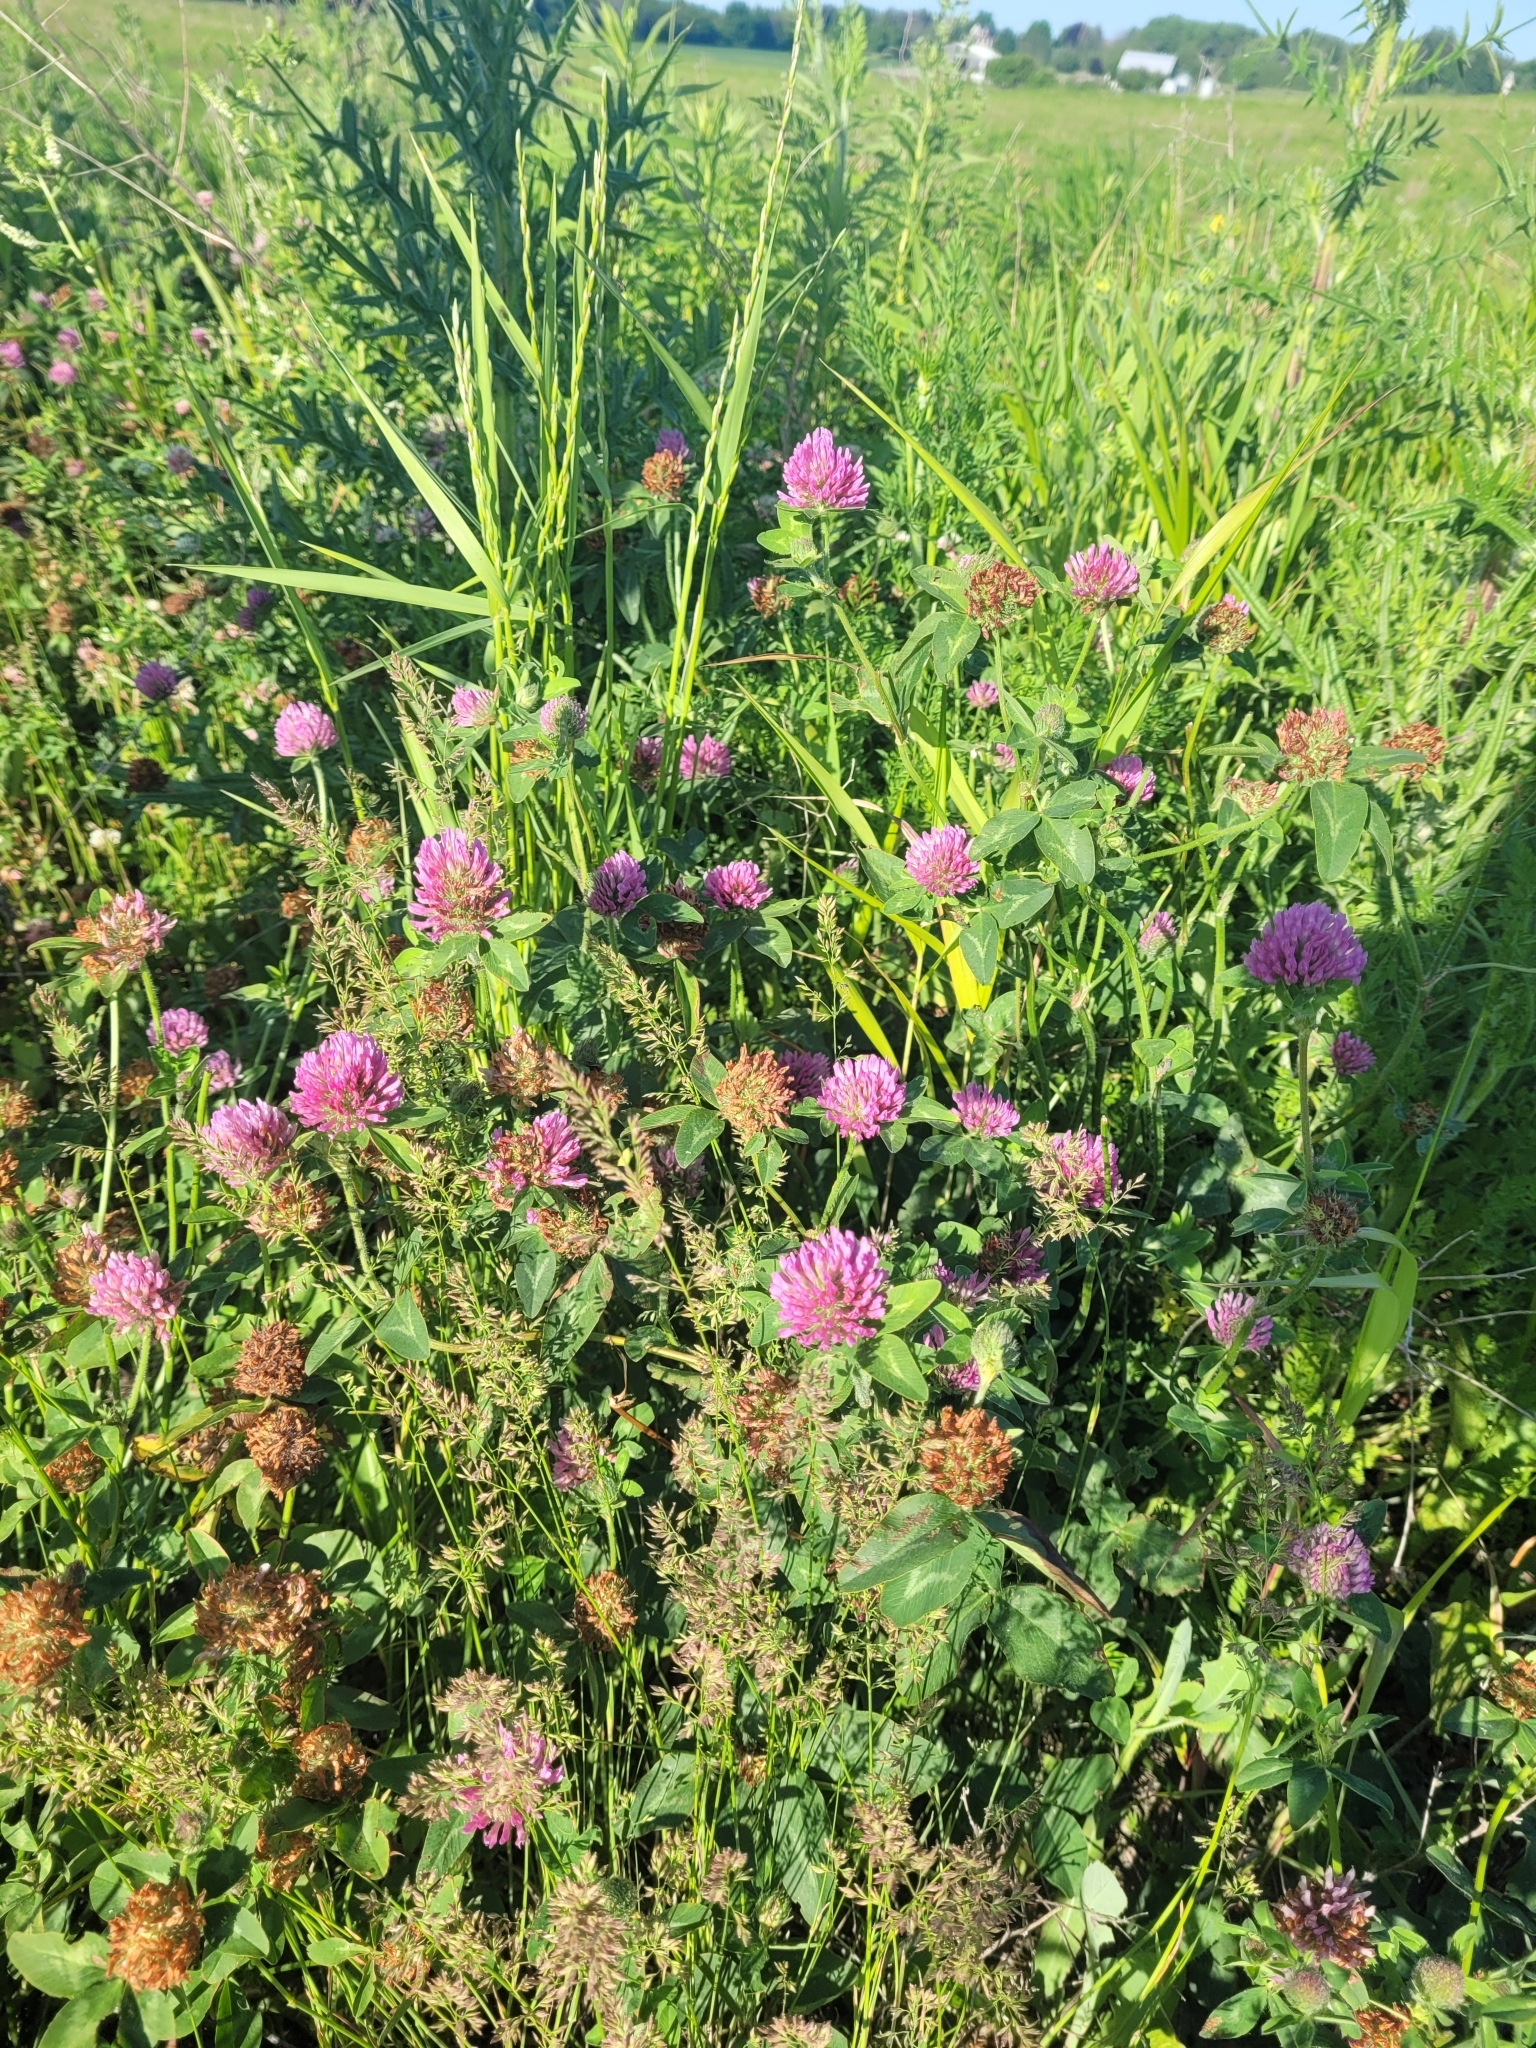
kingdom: Plantae
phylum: Tracheophyta
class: Magnoliopsida
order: Fabales
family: Fabaceae
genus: Trifolium
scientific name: Trifolium pratense
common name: Red clover
